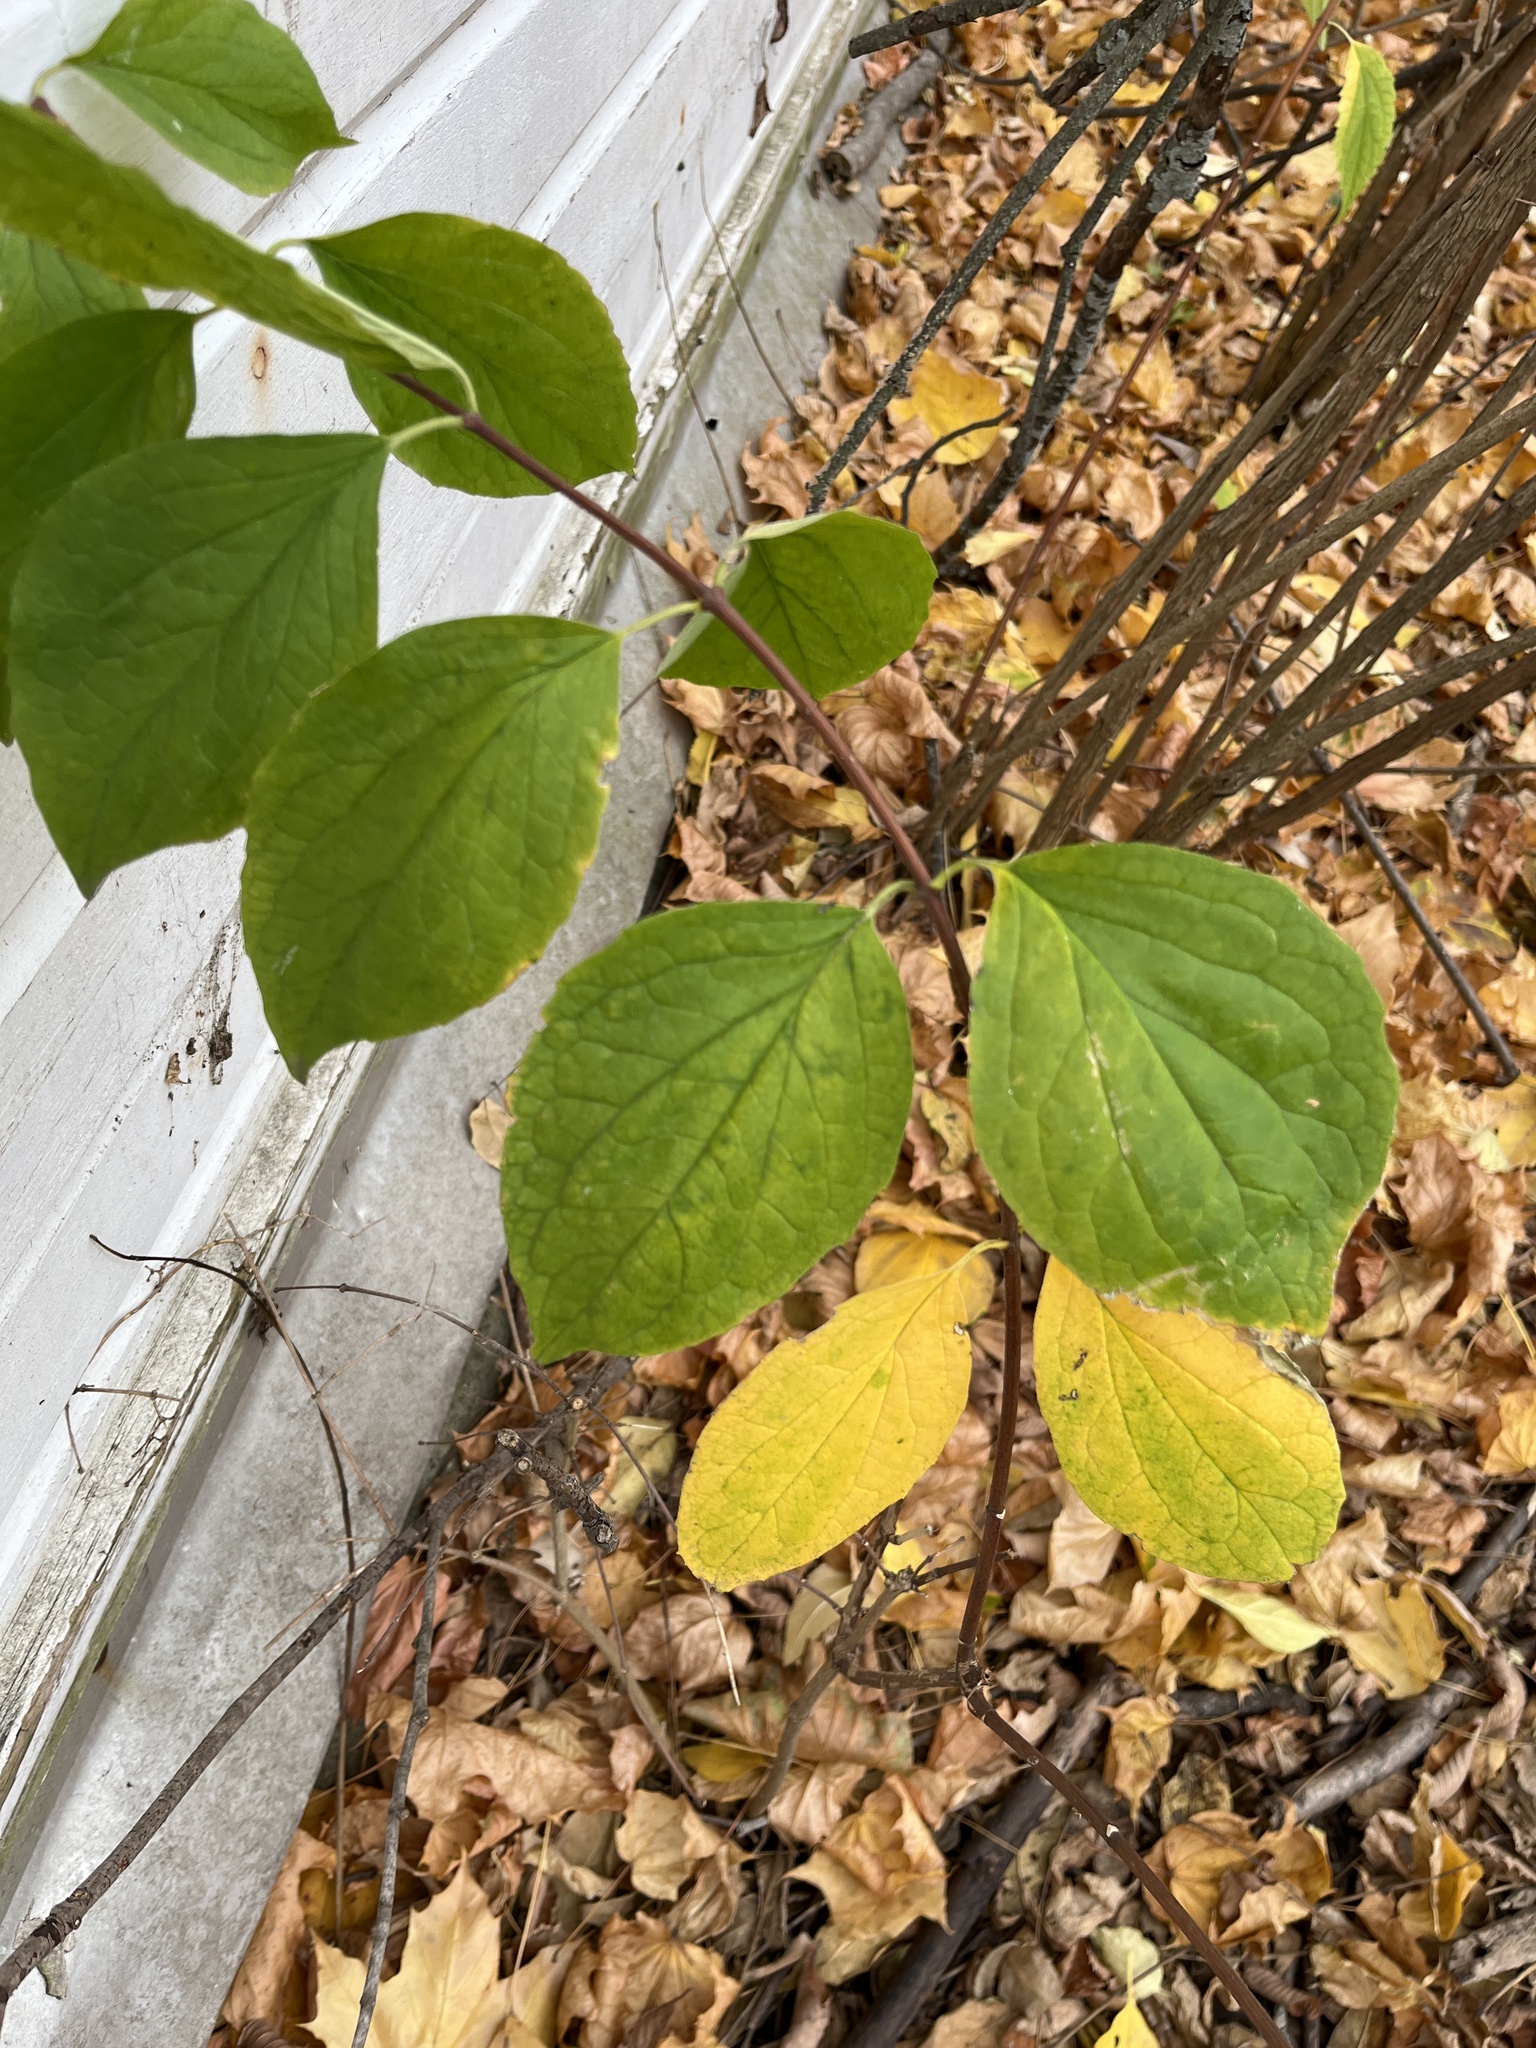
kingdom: Plantae
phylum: Tracheophyta
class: Magnoliopsida
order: Cornales
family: Hydrangeaceae
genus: Philadelphus
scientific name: Philadelphus coronarius
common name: Mock orange
